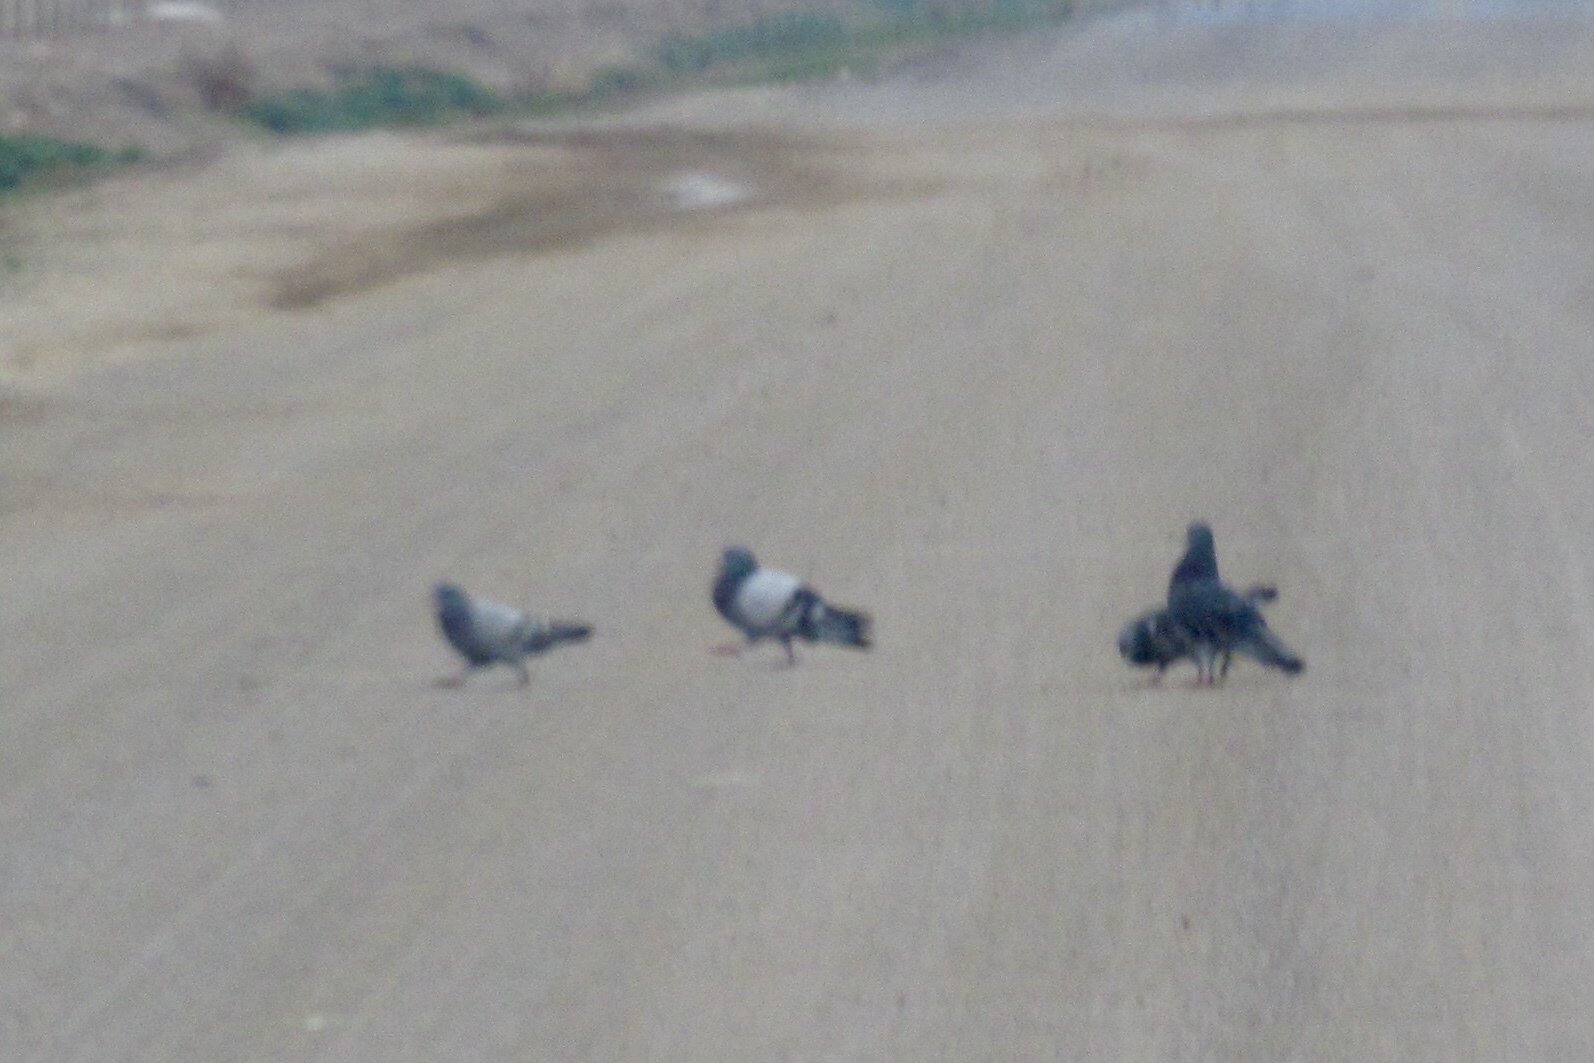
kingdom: Animalia
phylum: Chordata
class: Aves
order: Columbiformes
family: Columbidae
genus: Columba
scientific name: Columba livia
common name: Rock pigeon
